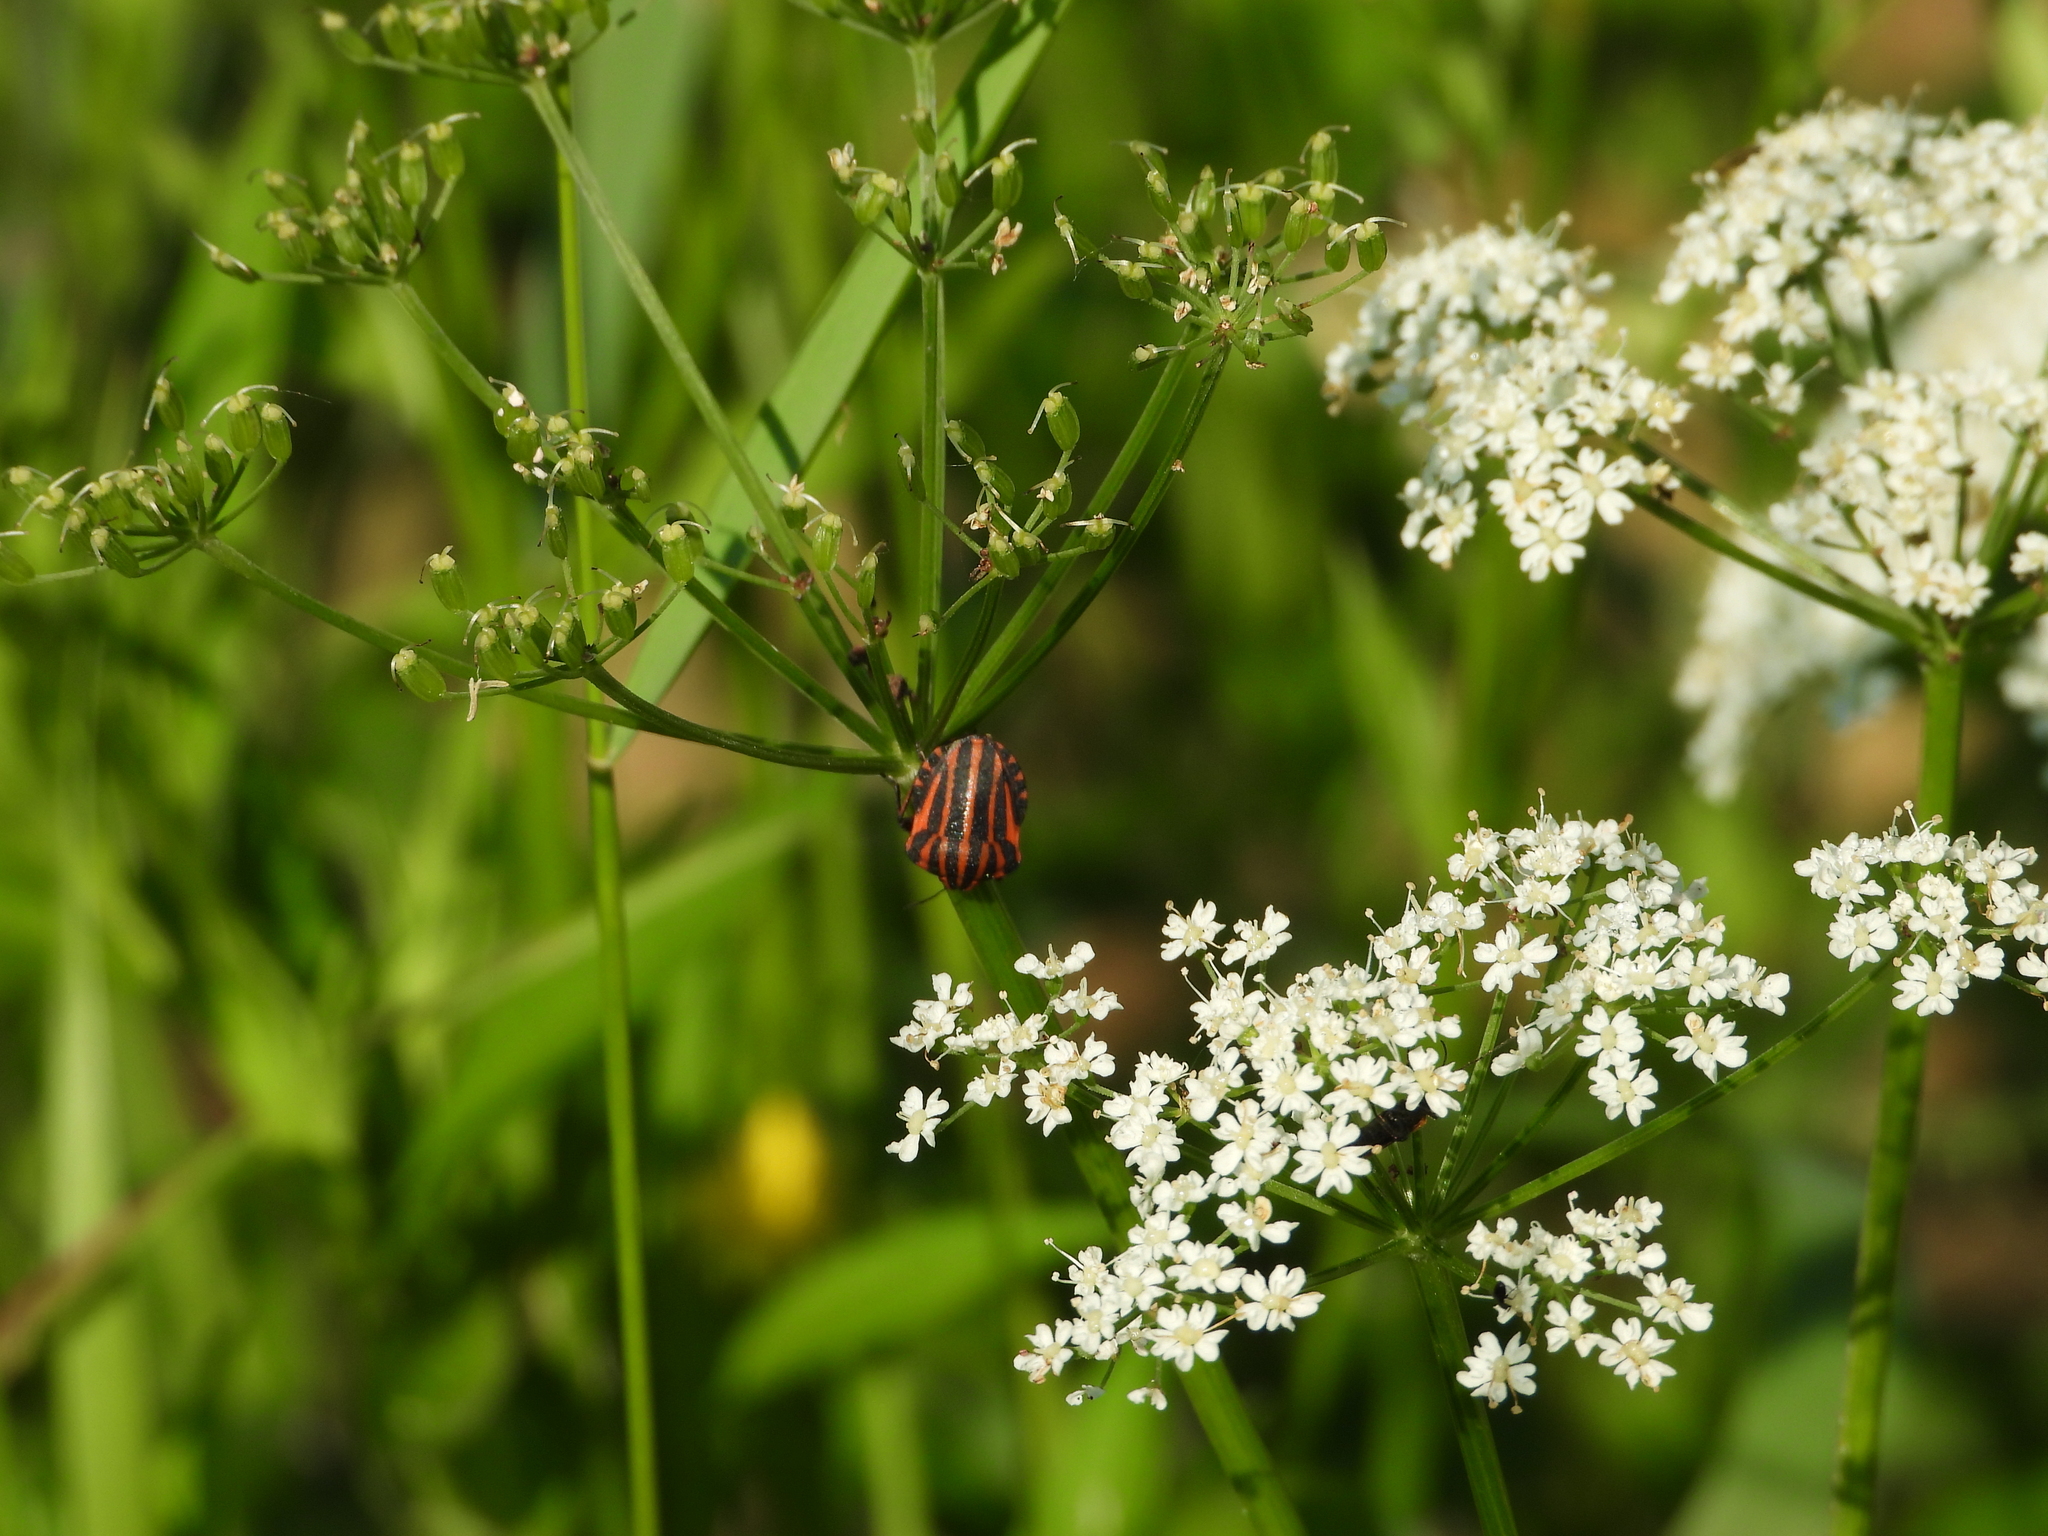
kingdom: Animalia
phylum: Arthropoda
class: Insecta
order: Hemiptera
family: Pentatomidae
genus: Graphosoma
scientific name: Graphosoma italicum
